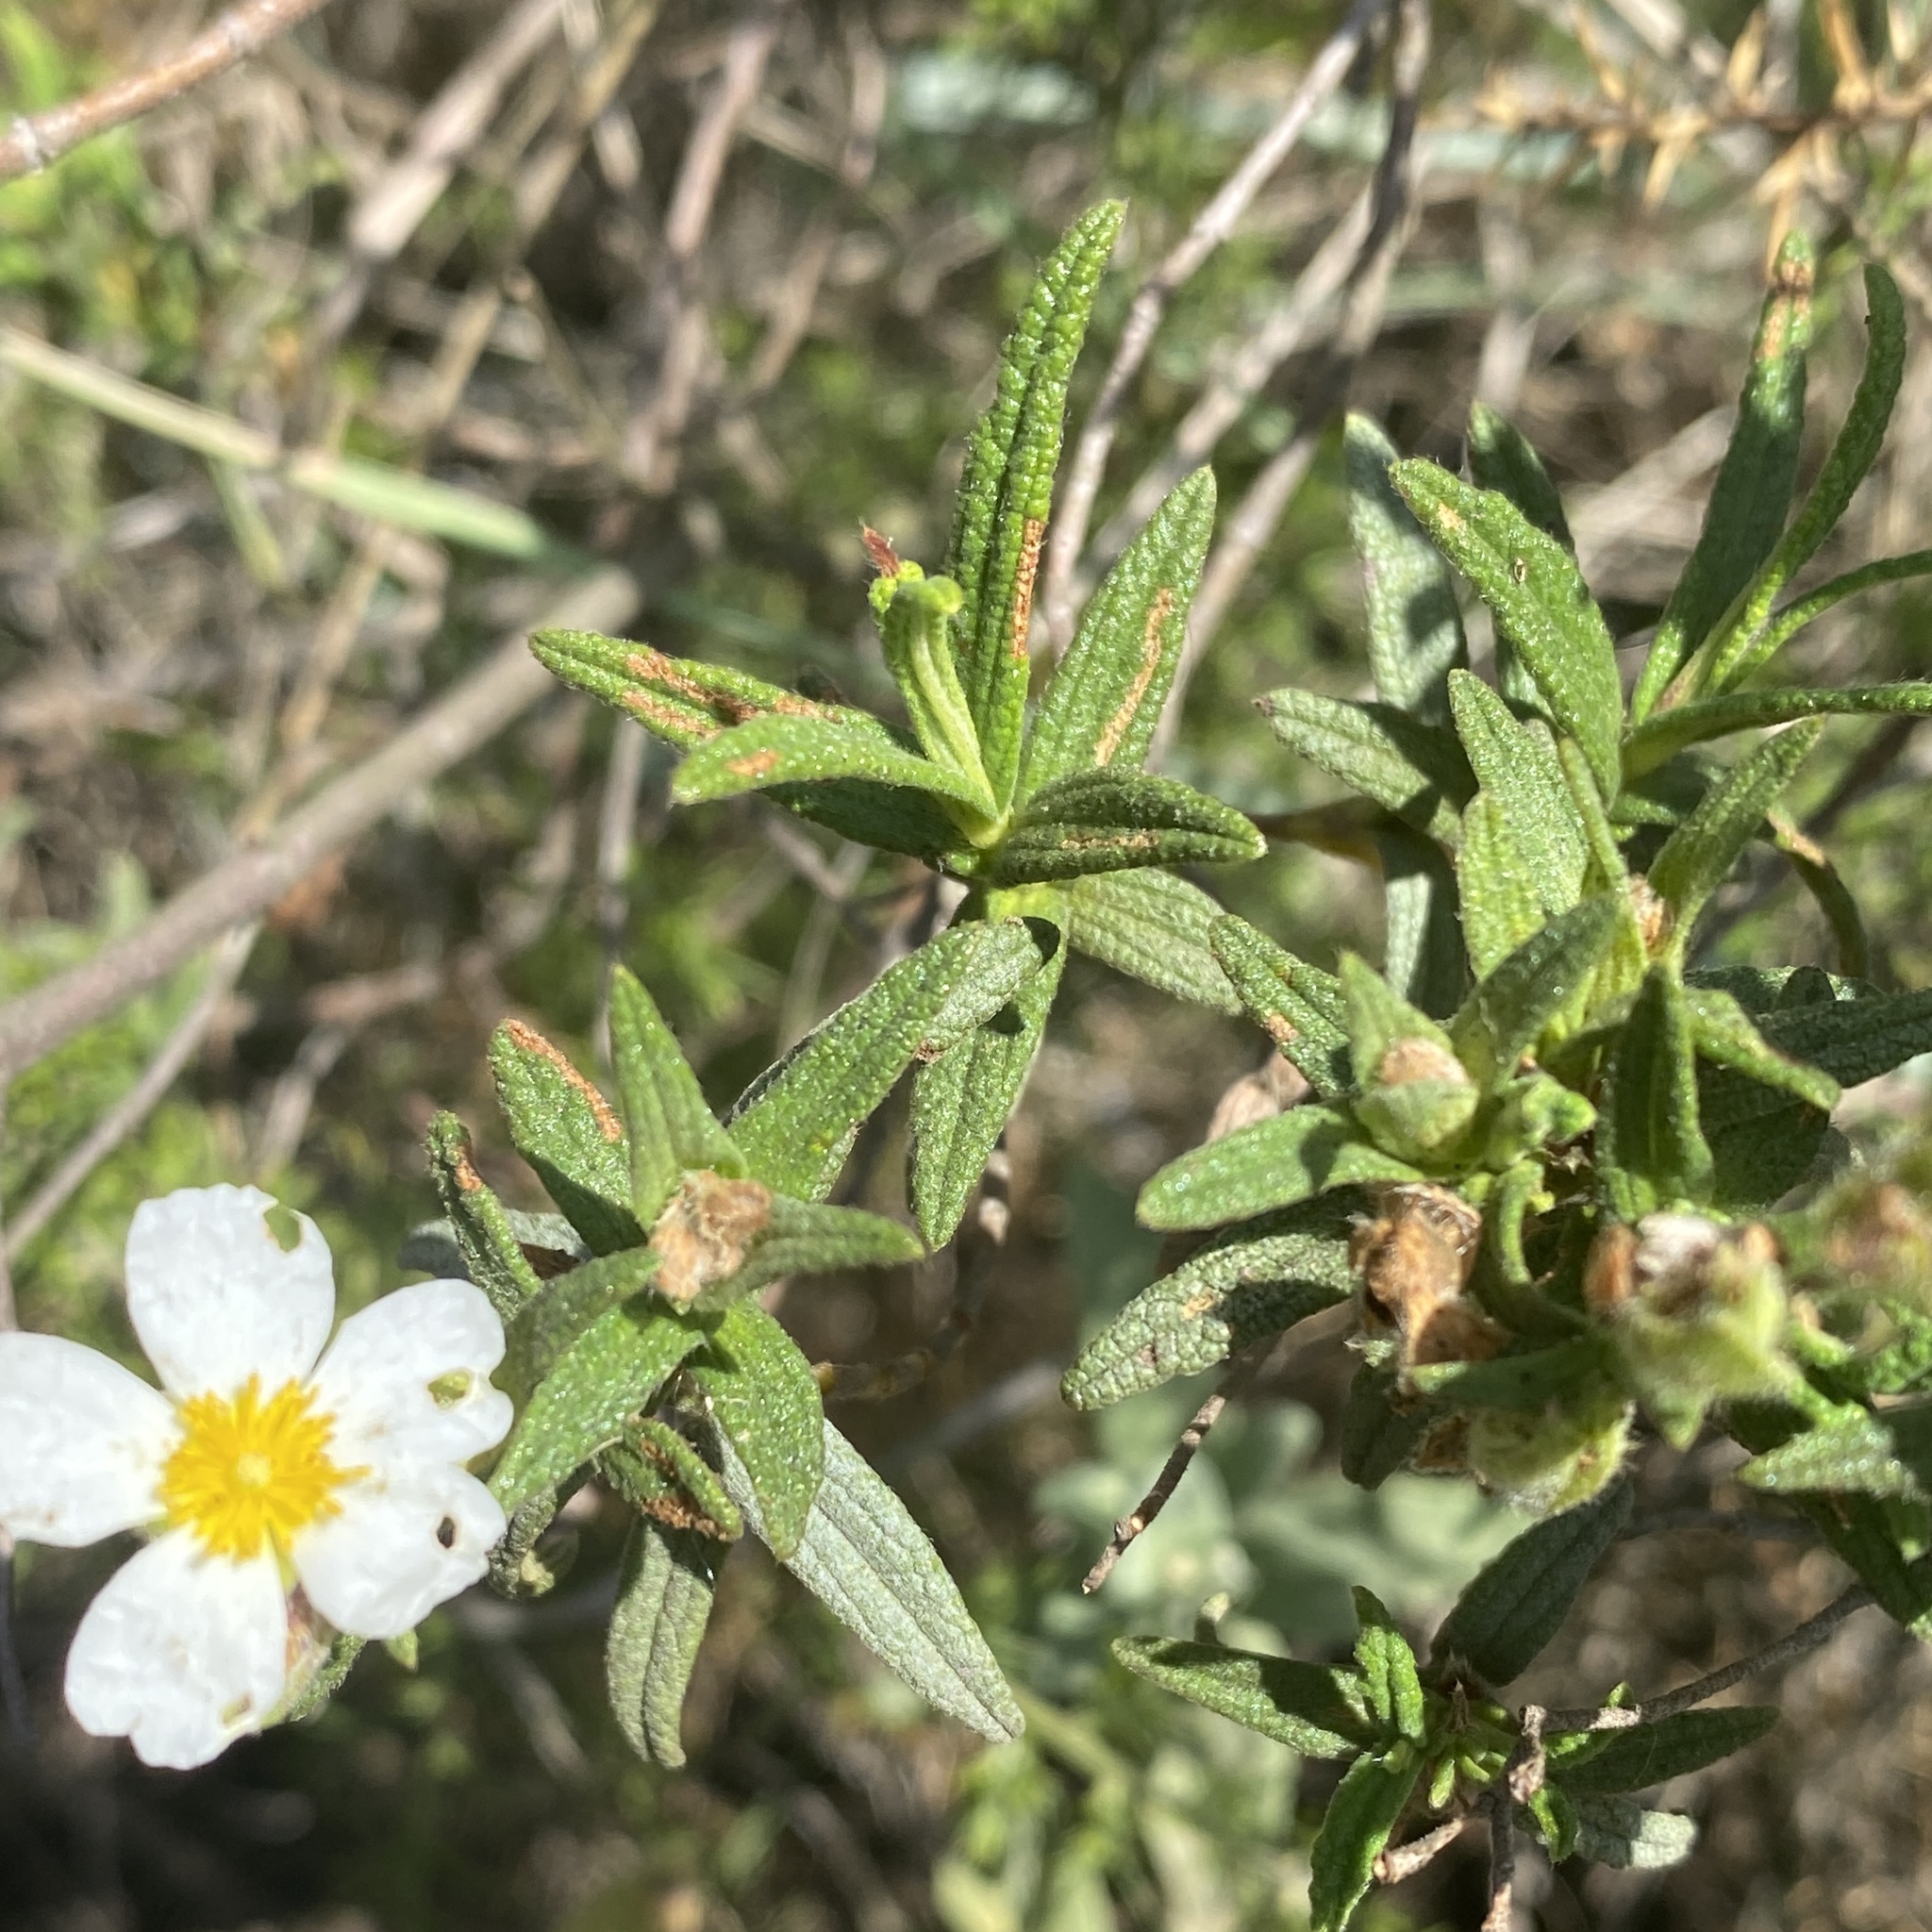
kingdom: Plantae
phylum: Tracheophyta
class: Magnoliopsida
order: Malvales
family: Cistaceae
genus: Cistus
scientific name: Cistus monspeliensis
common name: Montpelier cistus
